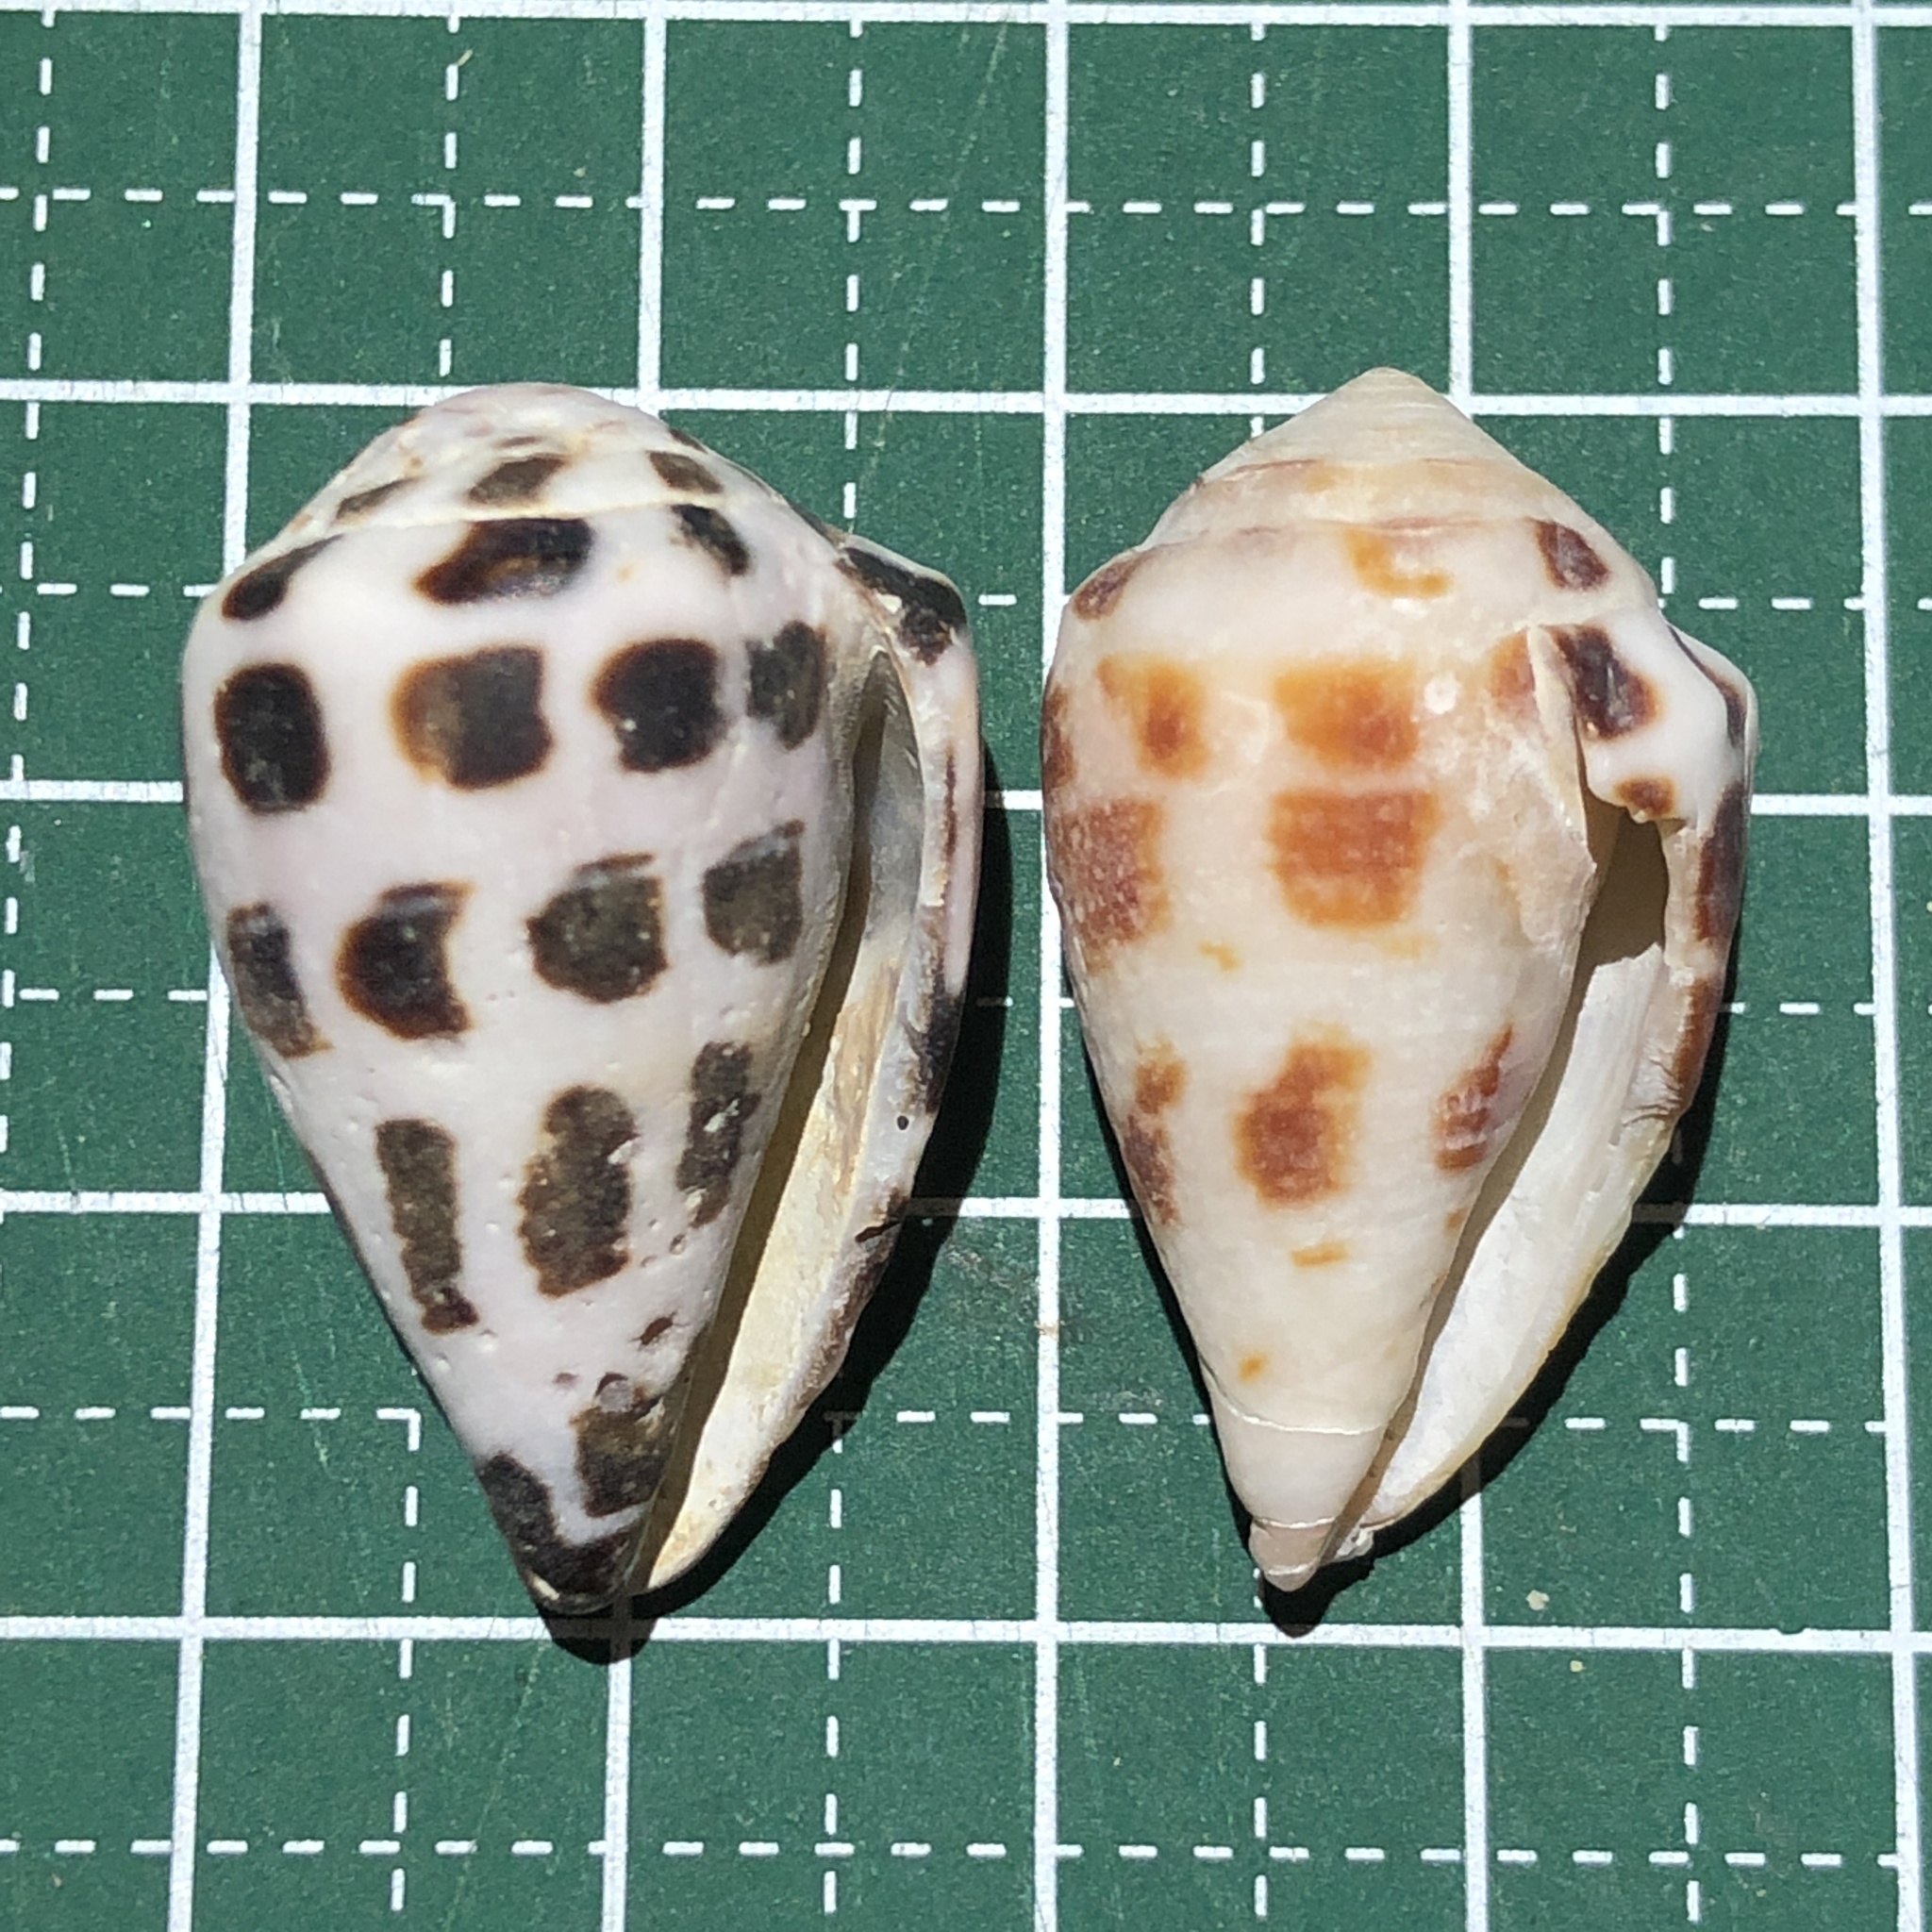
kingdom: Animalia
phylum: Mollusca
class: Gastropoda
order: Neogastropoda
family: Conidae
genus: Conus
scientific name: Conus ebraeus
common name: Hebrew cone
